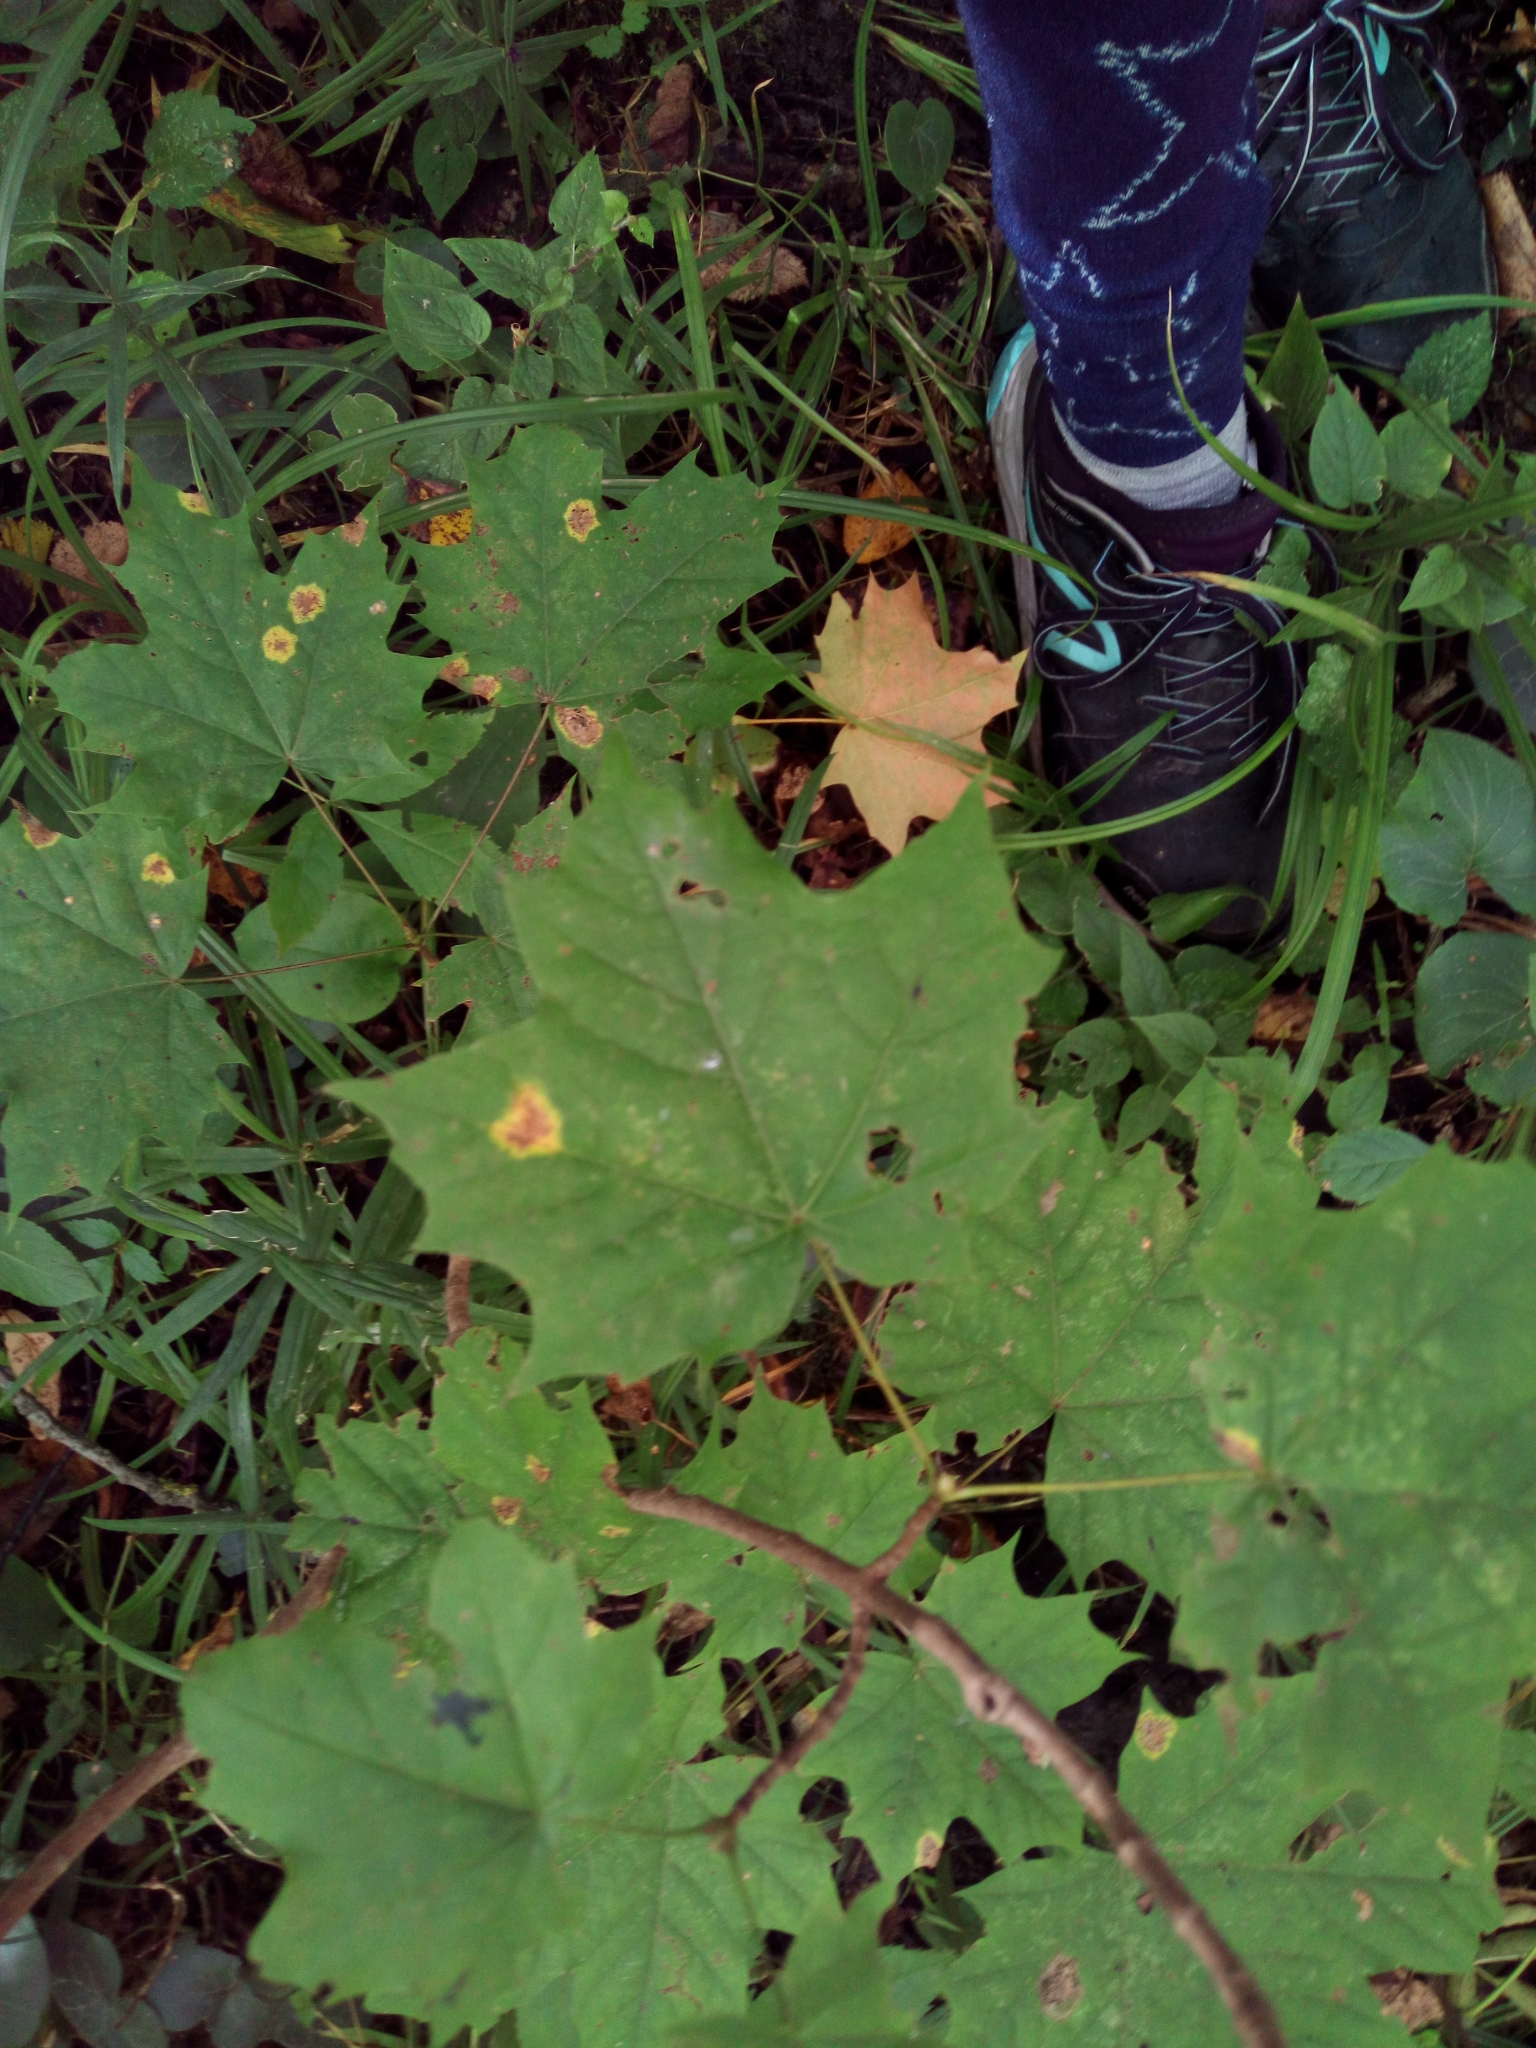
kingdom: Plantae
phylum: Tracheophyta
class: Magnoliopsida
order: Sapindales
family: Sapindaceae
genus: Acer
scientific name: Acer platanoides
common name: Norway maple
